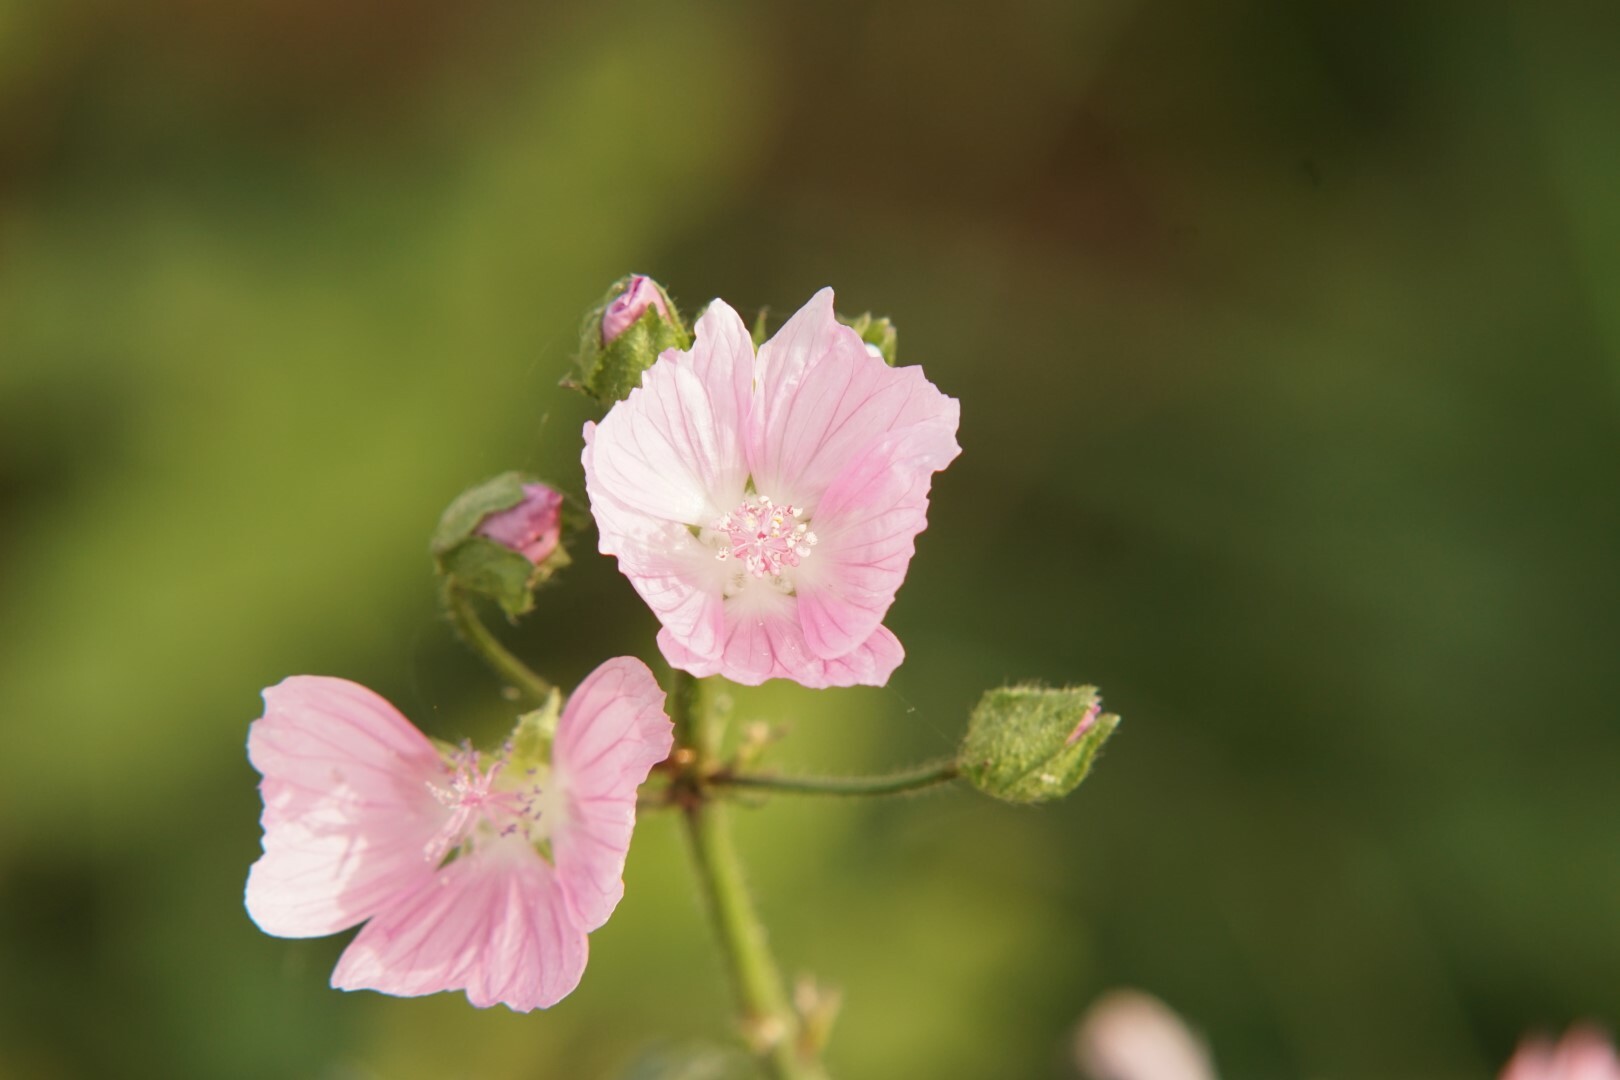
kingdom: Plantae
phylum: Tracheophyta
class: Magnoliopsida
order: Malvales
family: Malvaceae
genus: Malva
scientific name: Malva moschata
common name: Musk mallow
